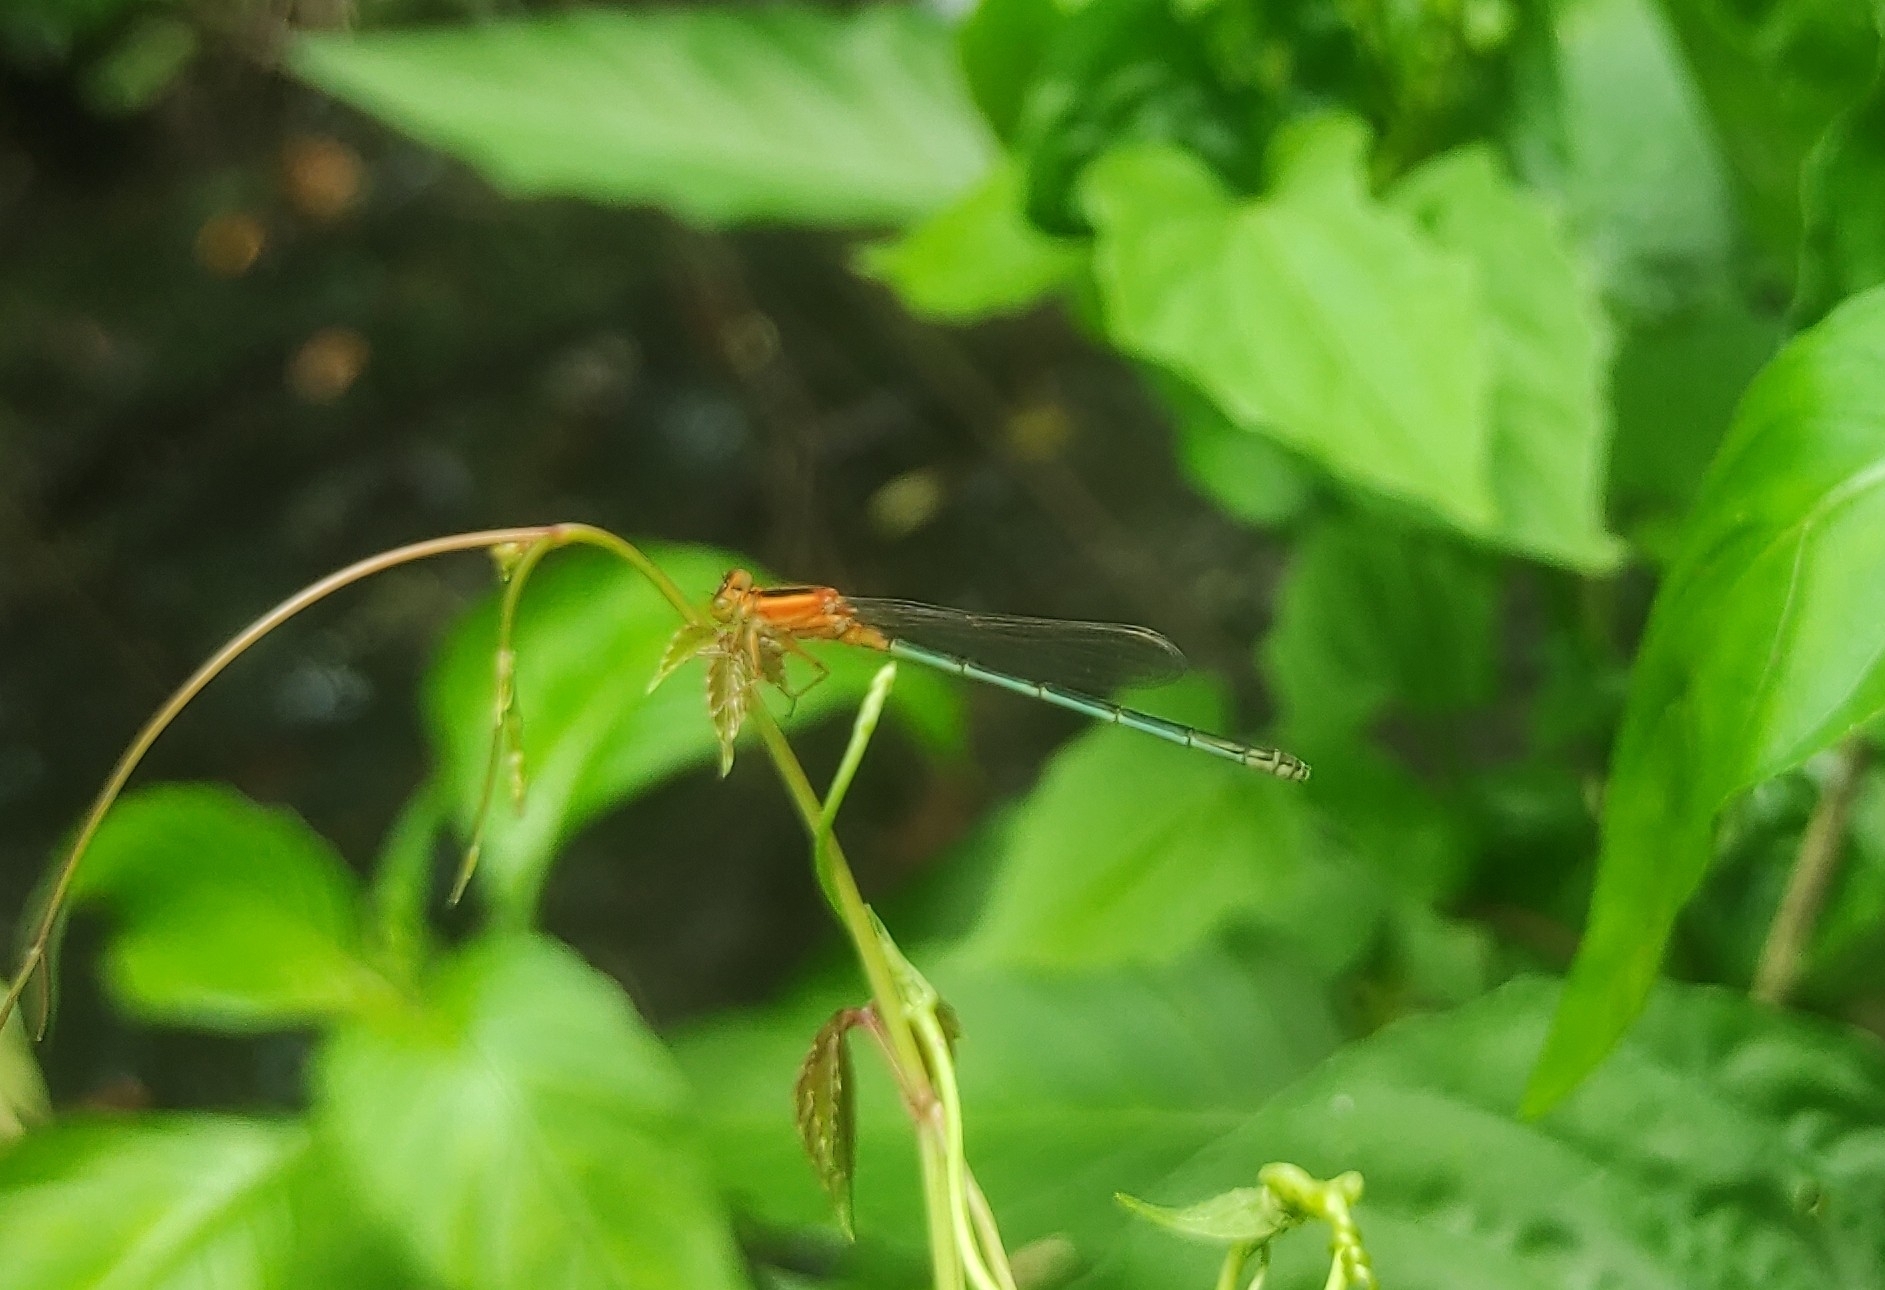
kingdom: Animalia
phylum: Arthropoda
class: Insecta
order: Odonata
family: Coenagrionidae
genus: Ischnura
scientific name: Ischnura senegalensis
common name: Tropical bluetail
